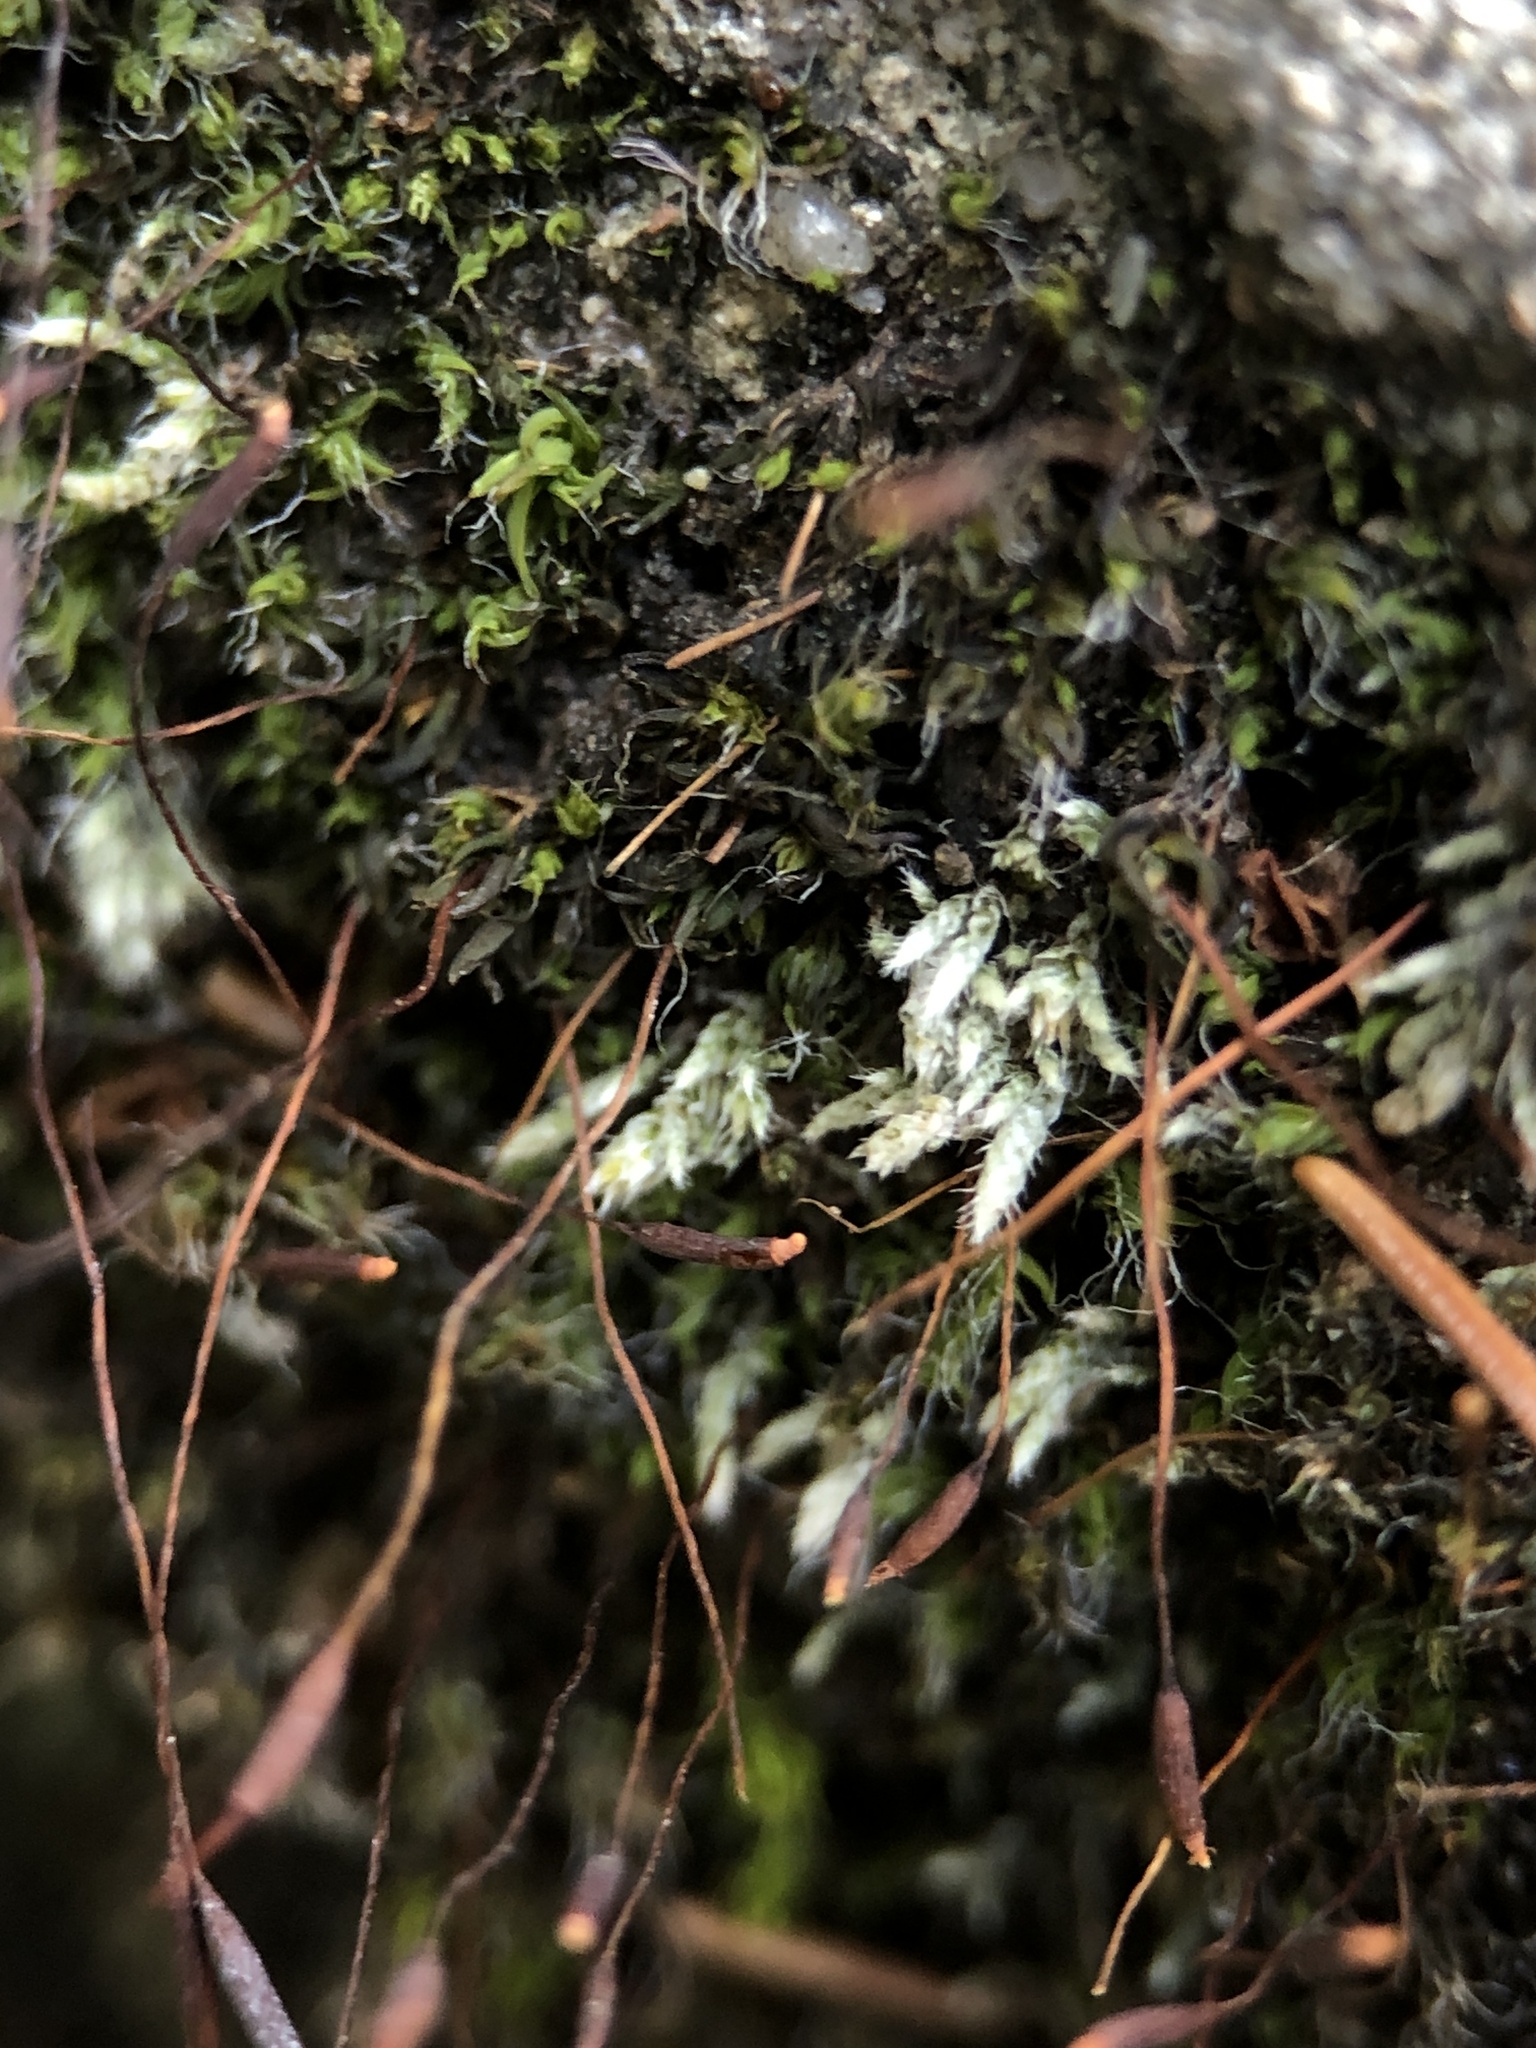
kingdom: Plantae
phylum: Bryophyta
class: Bryopsida
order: Bryales
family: Bryaceae
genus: Bryum
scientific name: Bryum argenteum
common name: Silver-moss
